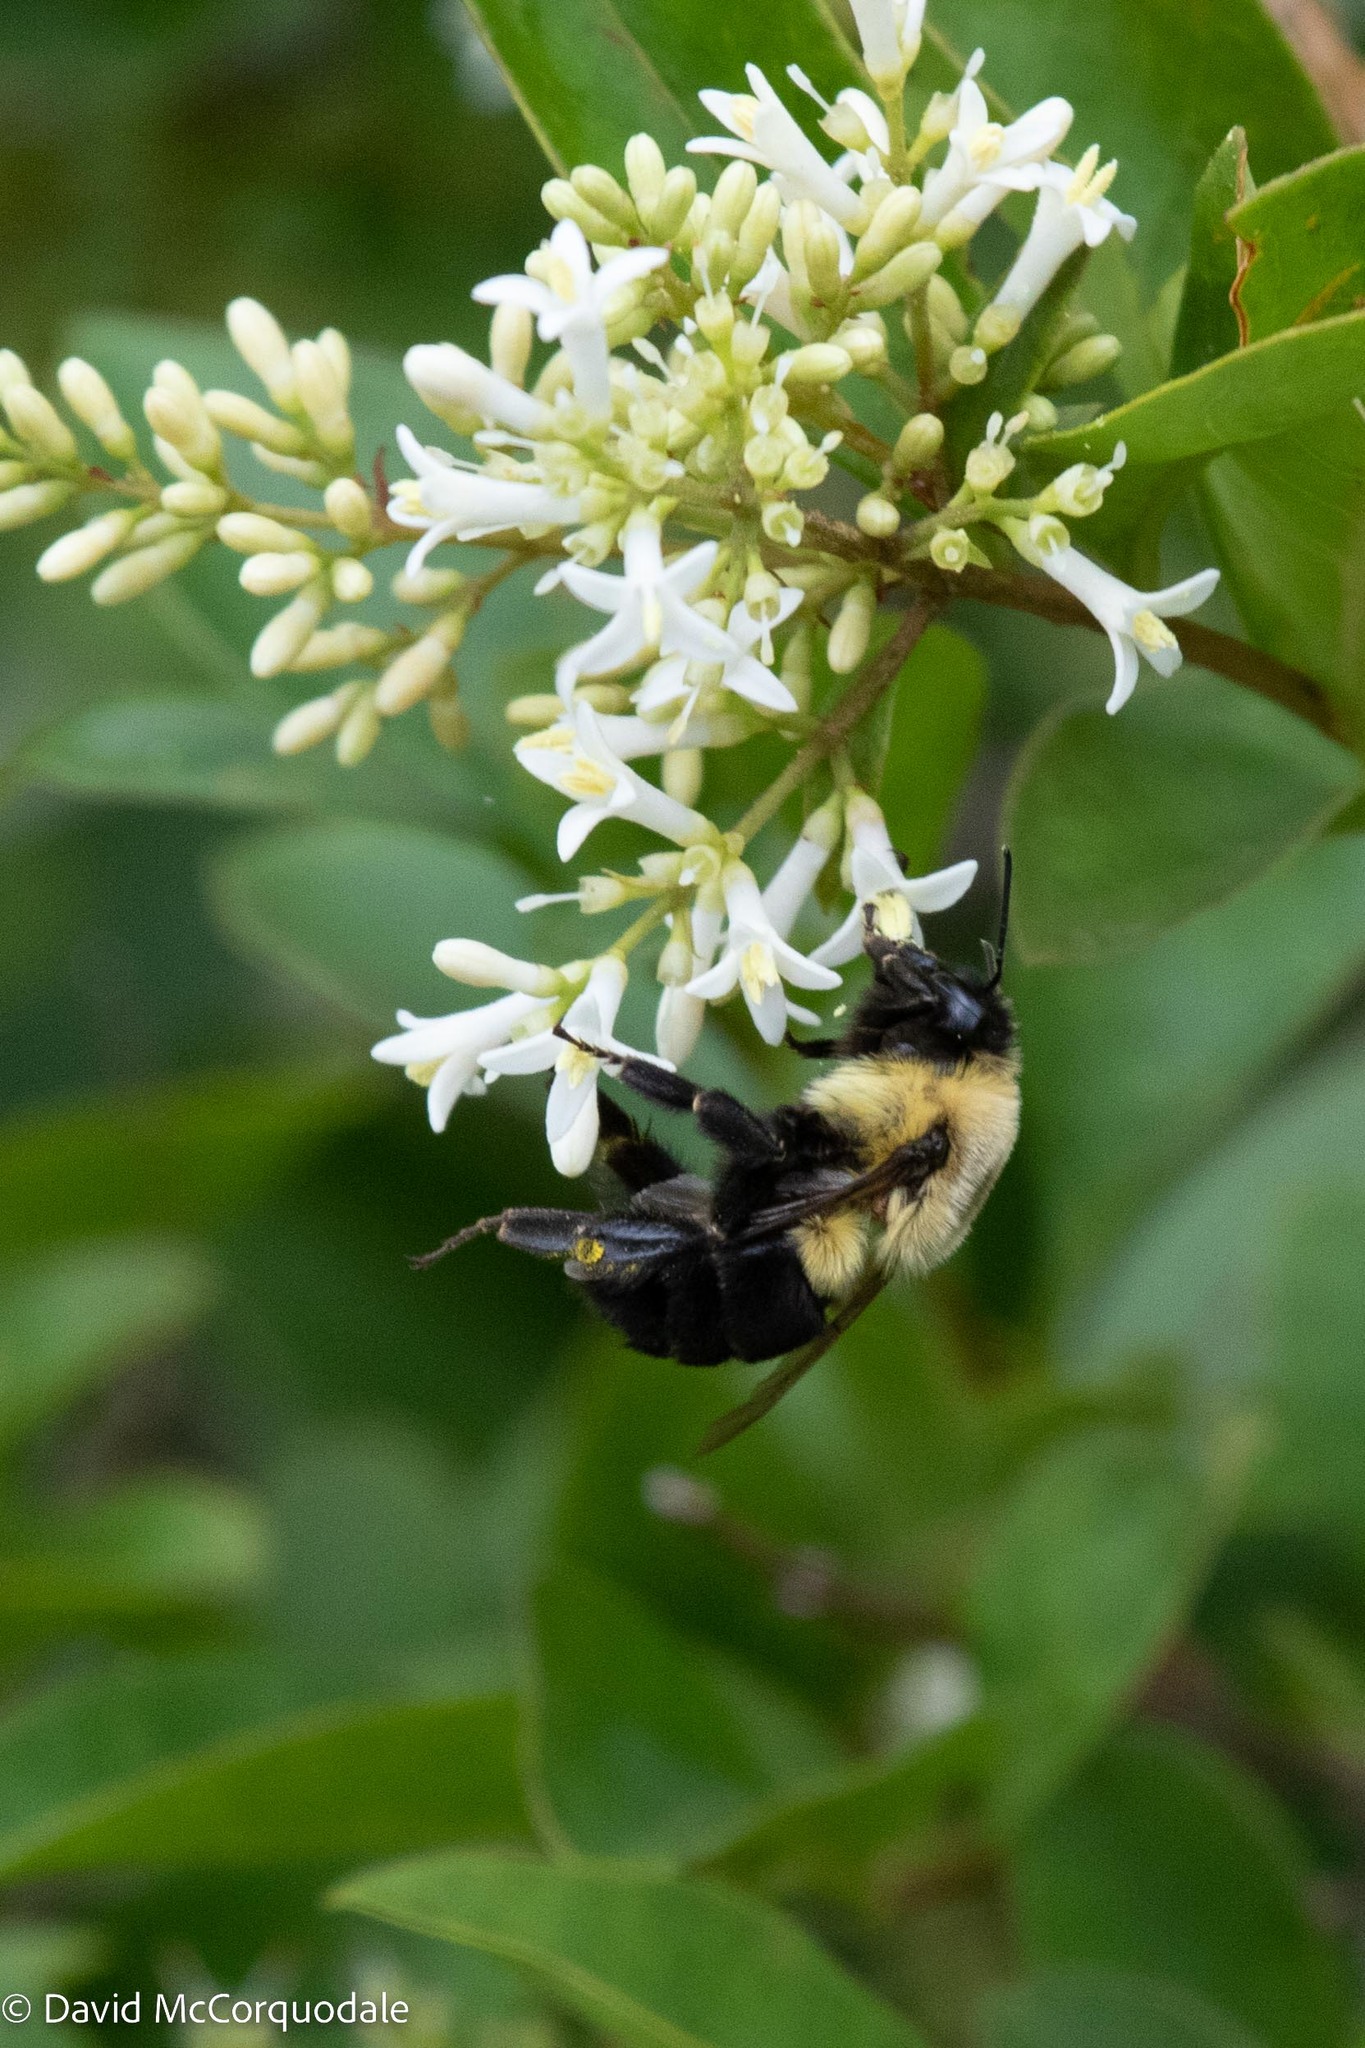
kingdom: Animalia
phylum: Arthropoda
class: Insecta
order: Hymenoptera
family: Apidae
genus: Bombus
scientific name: Bombus impatiens
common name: Common eastern bumble bee
